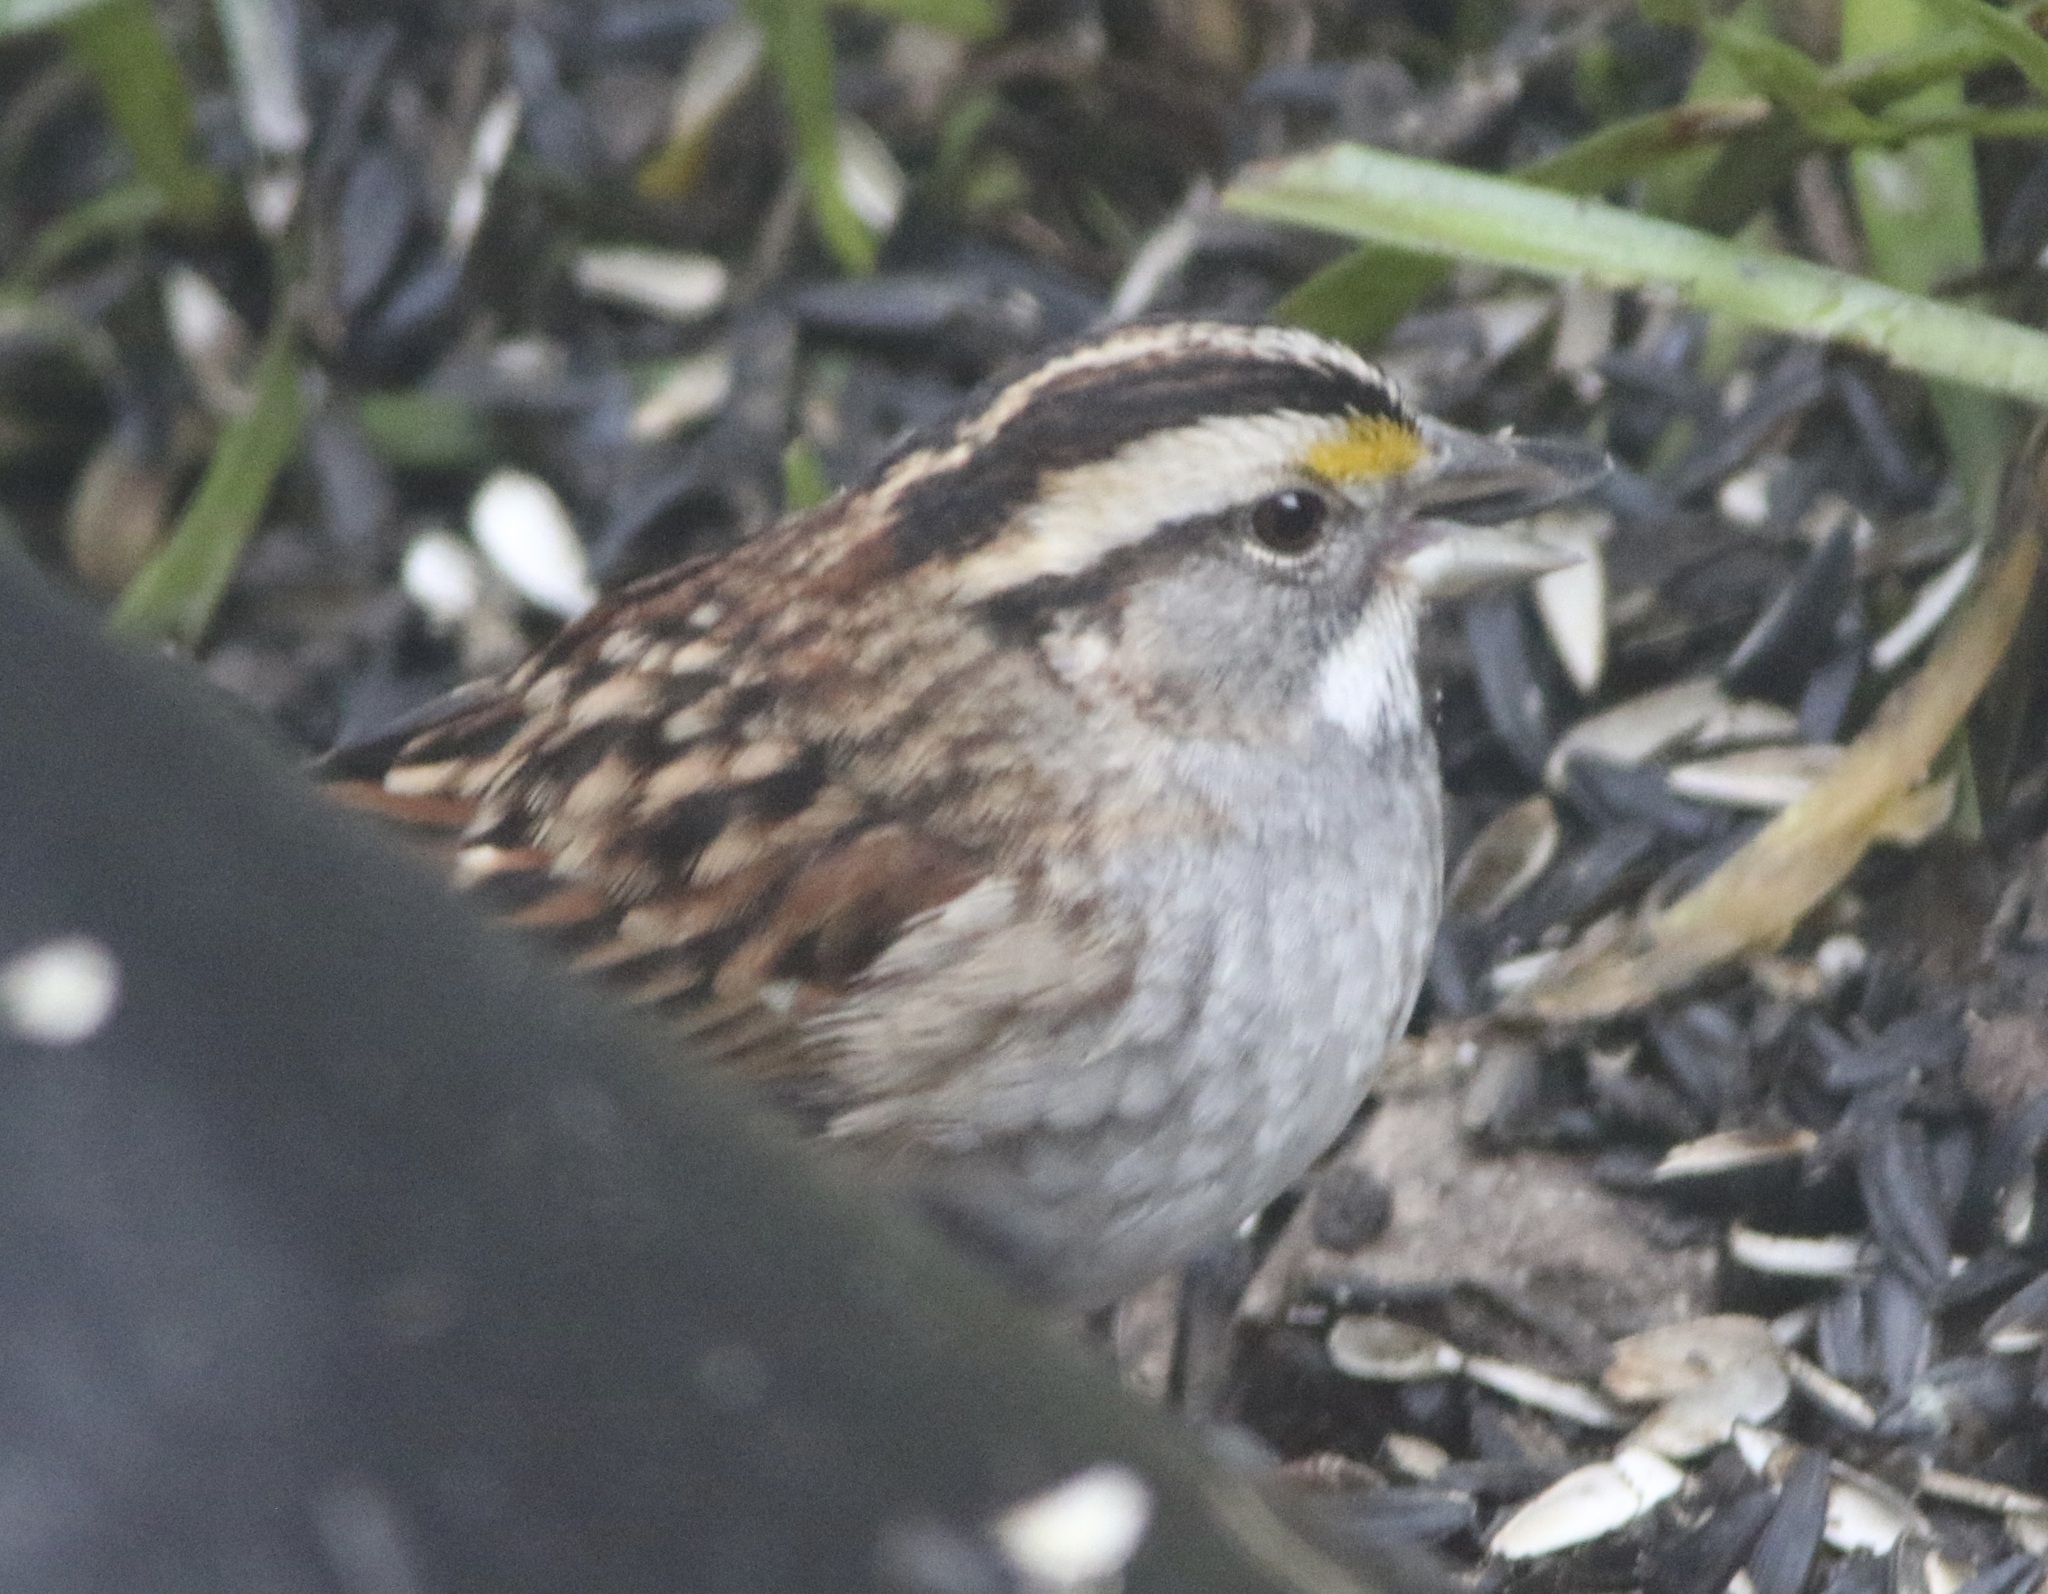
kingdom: Animalia
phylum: Chordata
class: Aves
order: Passeriformes
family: Passerellidae
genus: Zonotrichia
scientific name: Zonotrichia albicollis
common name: White-throated sparrow
